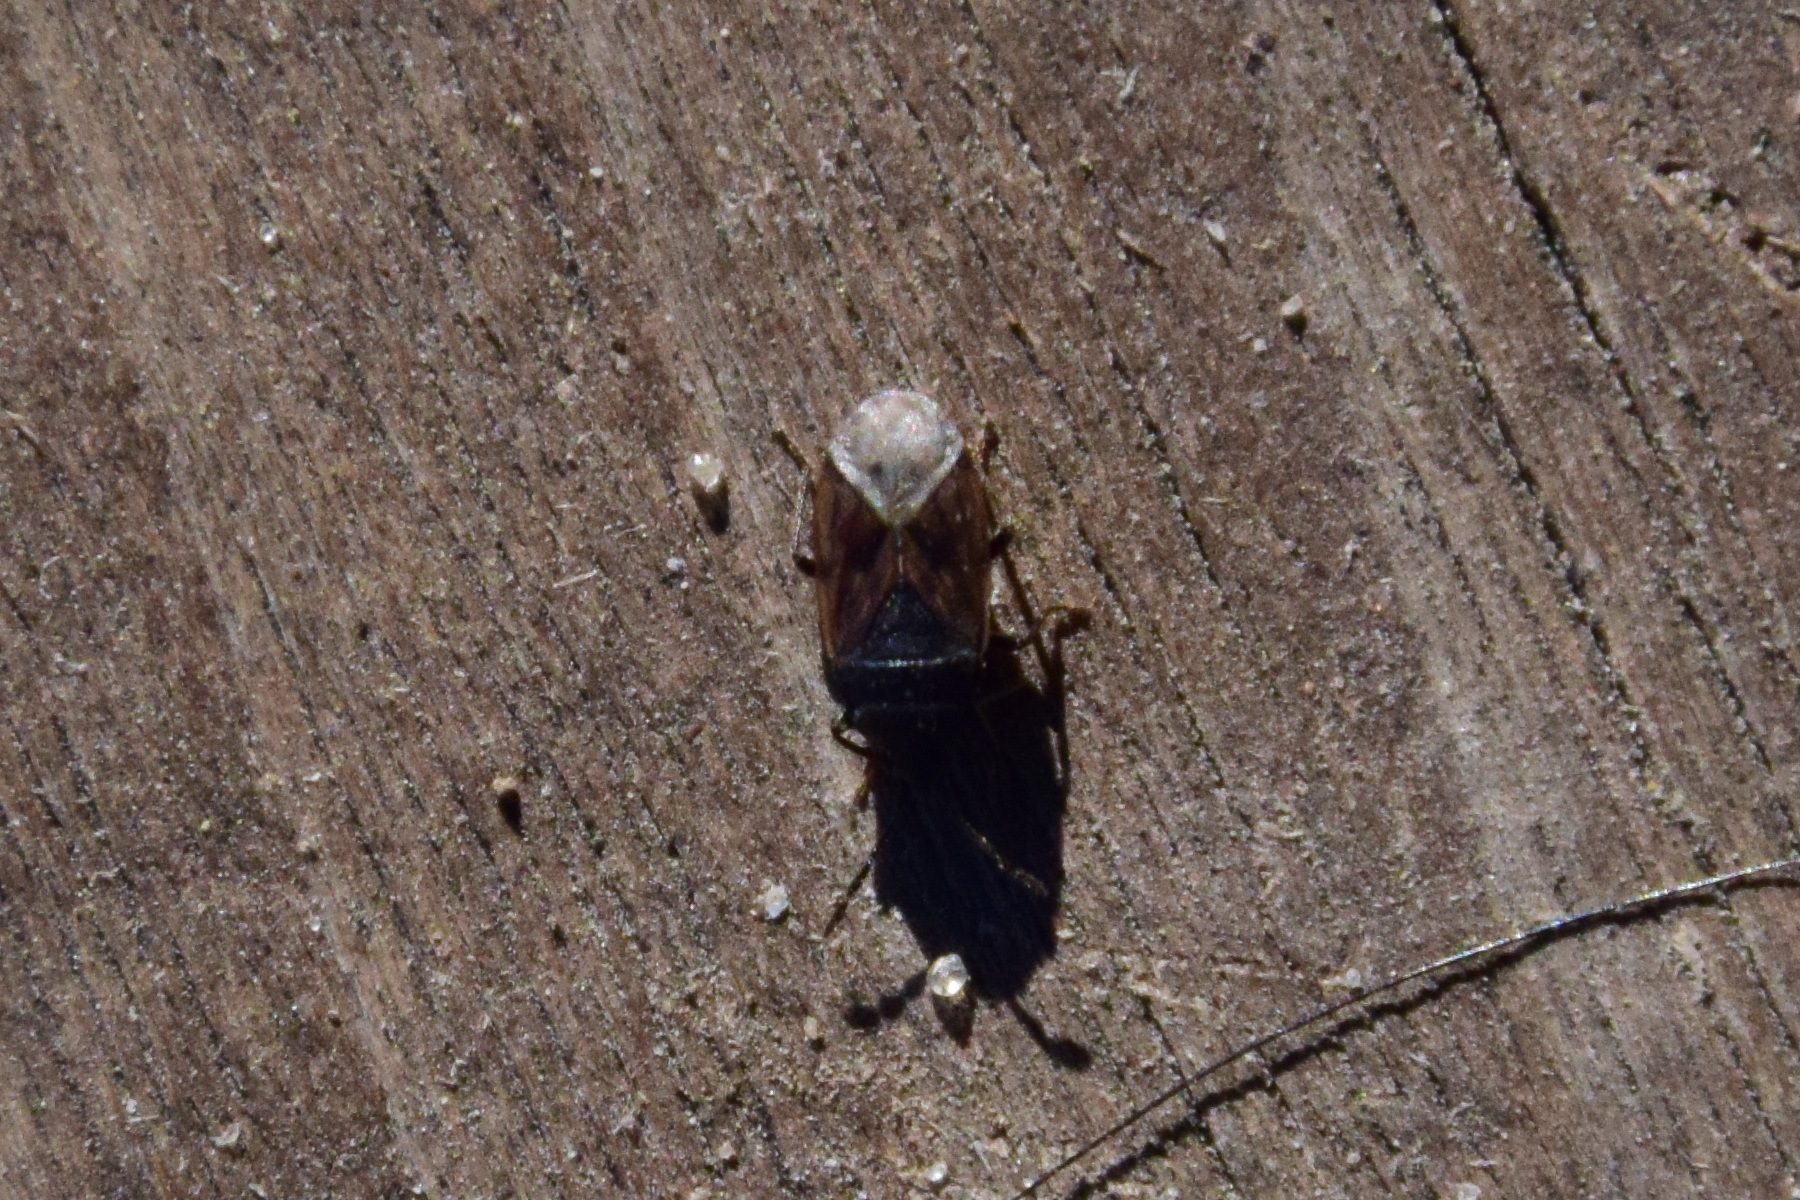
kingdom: Animalia
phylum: Arthropoda
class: Insecta
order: Hemiptera
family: Rhyparochromidae
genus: Drymus
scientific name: Drymus sylvaticus
